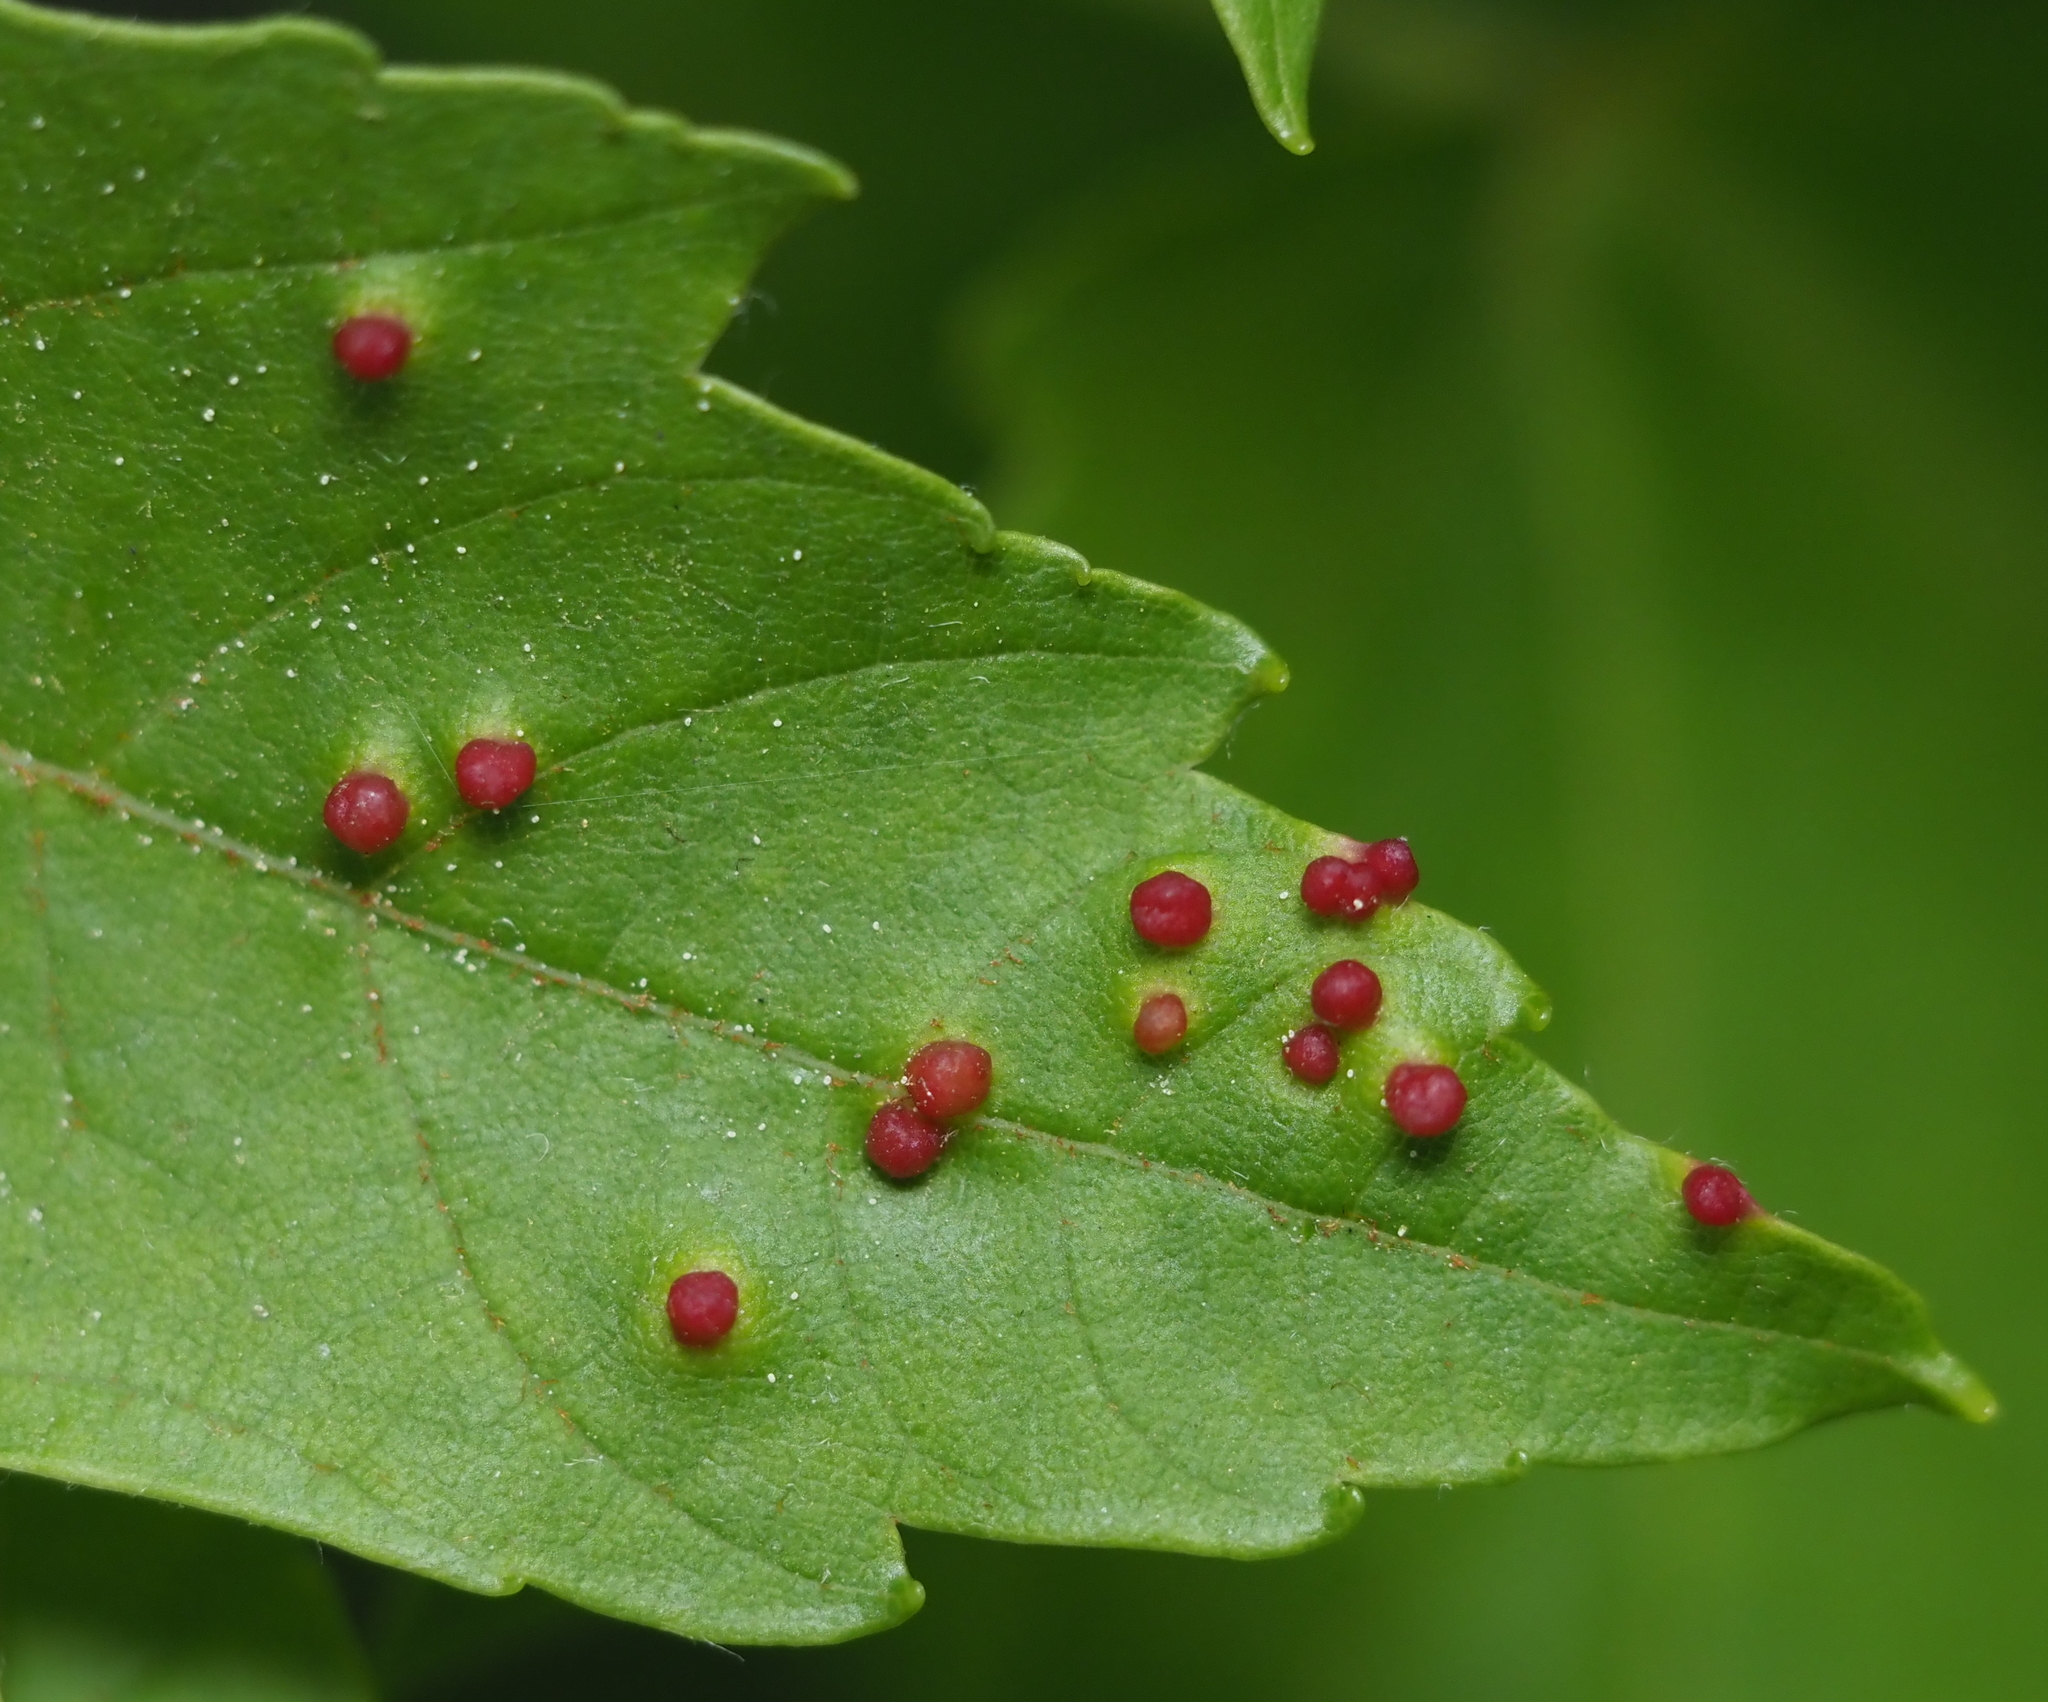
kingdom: Animalia
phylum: Arthropoda
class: Arachnida
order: Trombidiformes
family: Eriophyidae
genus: Vasates
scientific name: Vasates quadripedes
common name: Maple bladder gall mite
